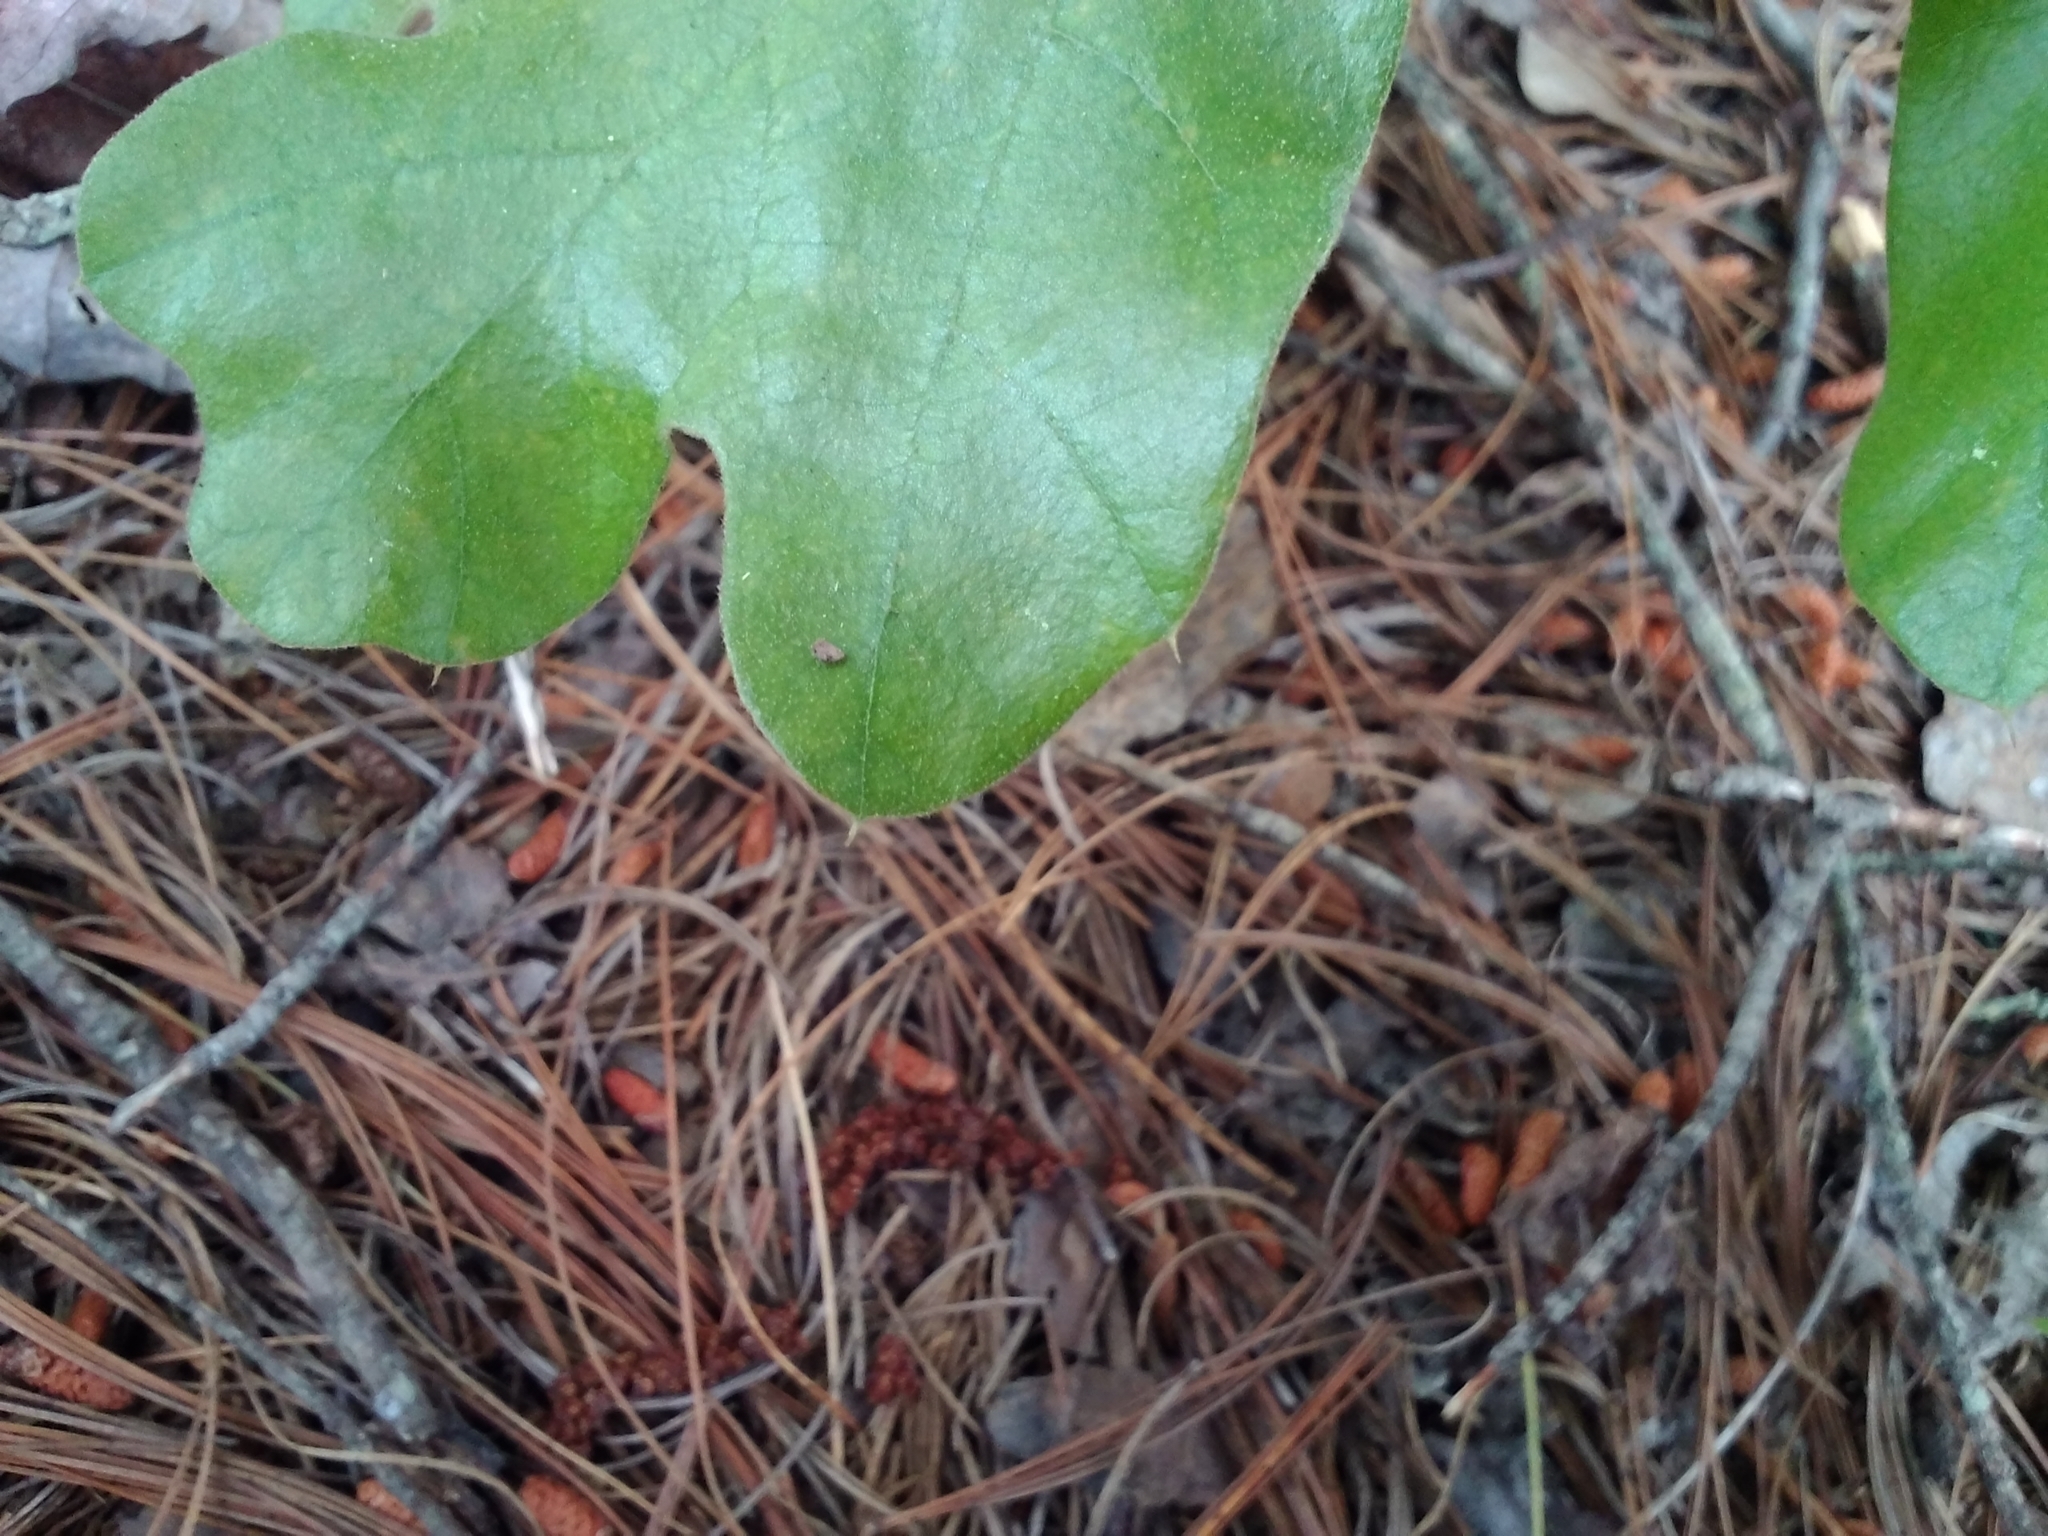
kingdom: Plantae
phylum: Tracheophyta
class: Magnoliopsida
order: Fagales
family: Fagaceae
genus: Quercus
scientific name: Quercus marilandica
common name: Blackjack oak
